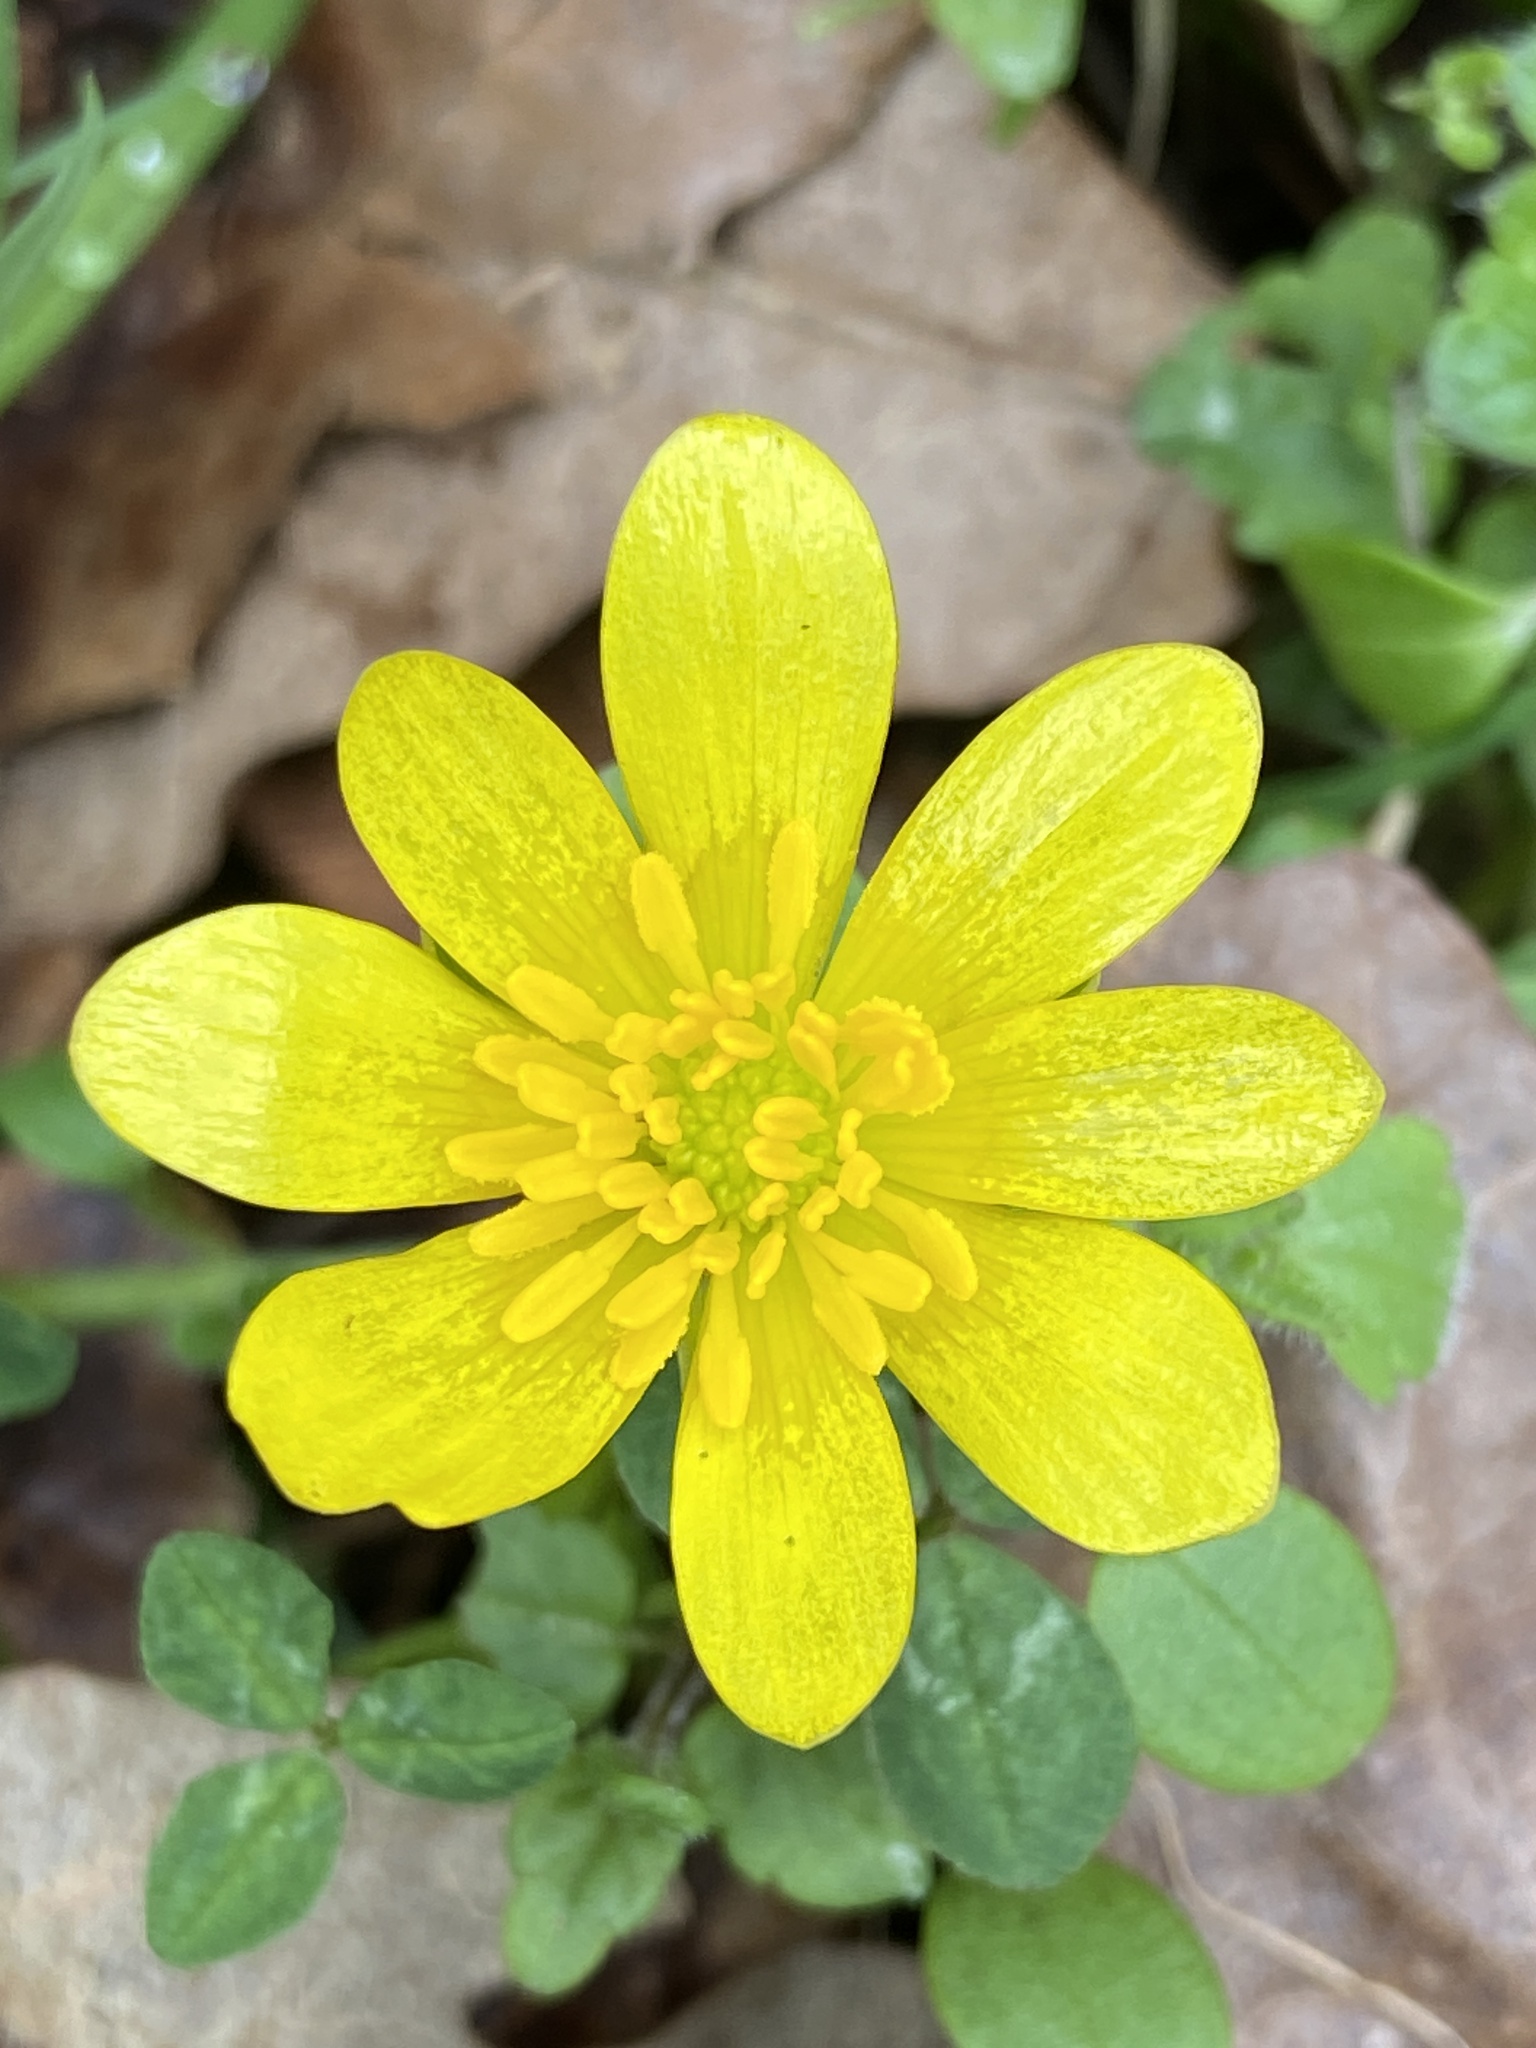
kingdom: Plantae
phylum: Tracheophyta
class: Magnoliopsida
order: Ranunculales
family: Ranunculaceae
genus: Ficaria
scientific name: Ficaria verna
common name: Lesser celandine
